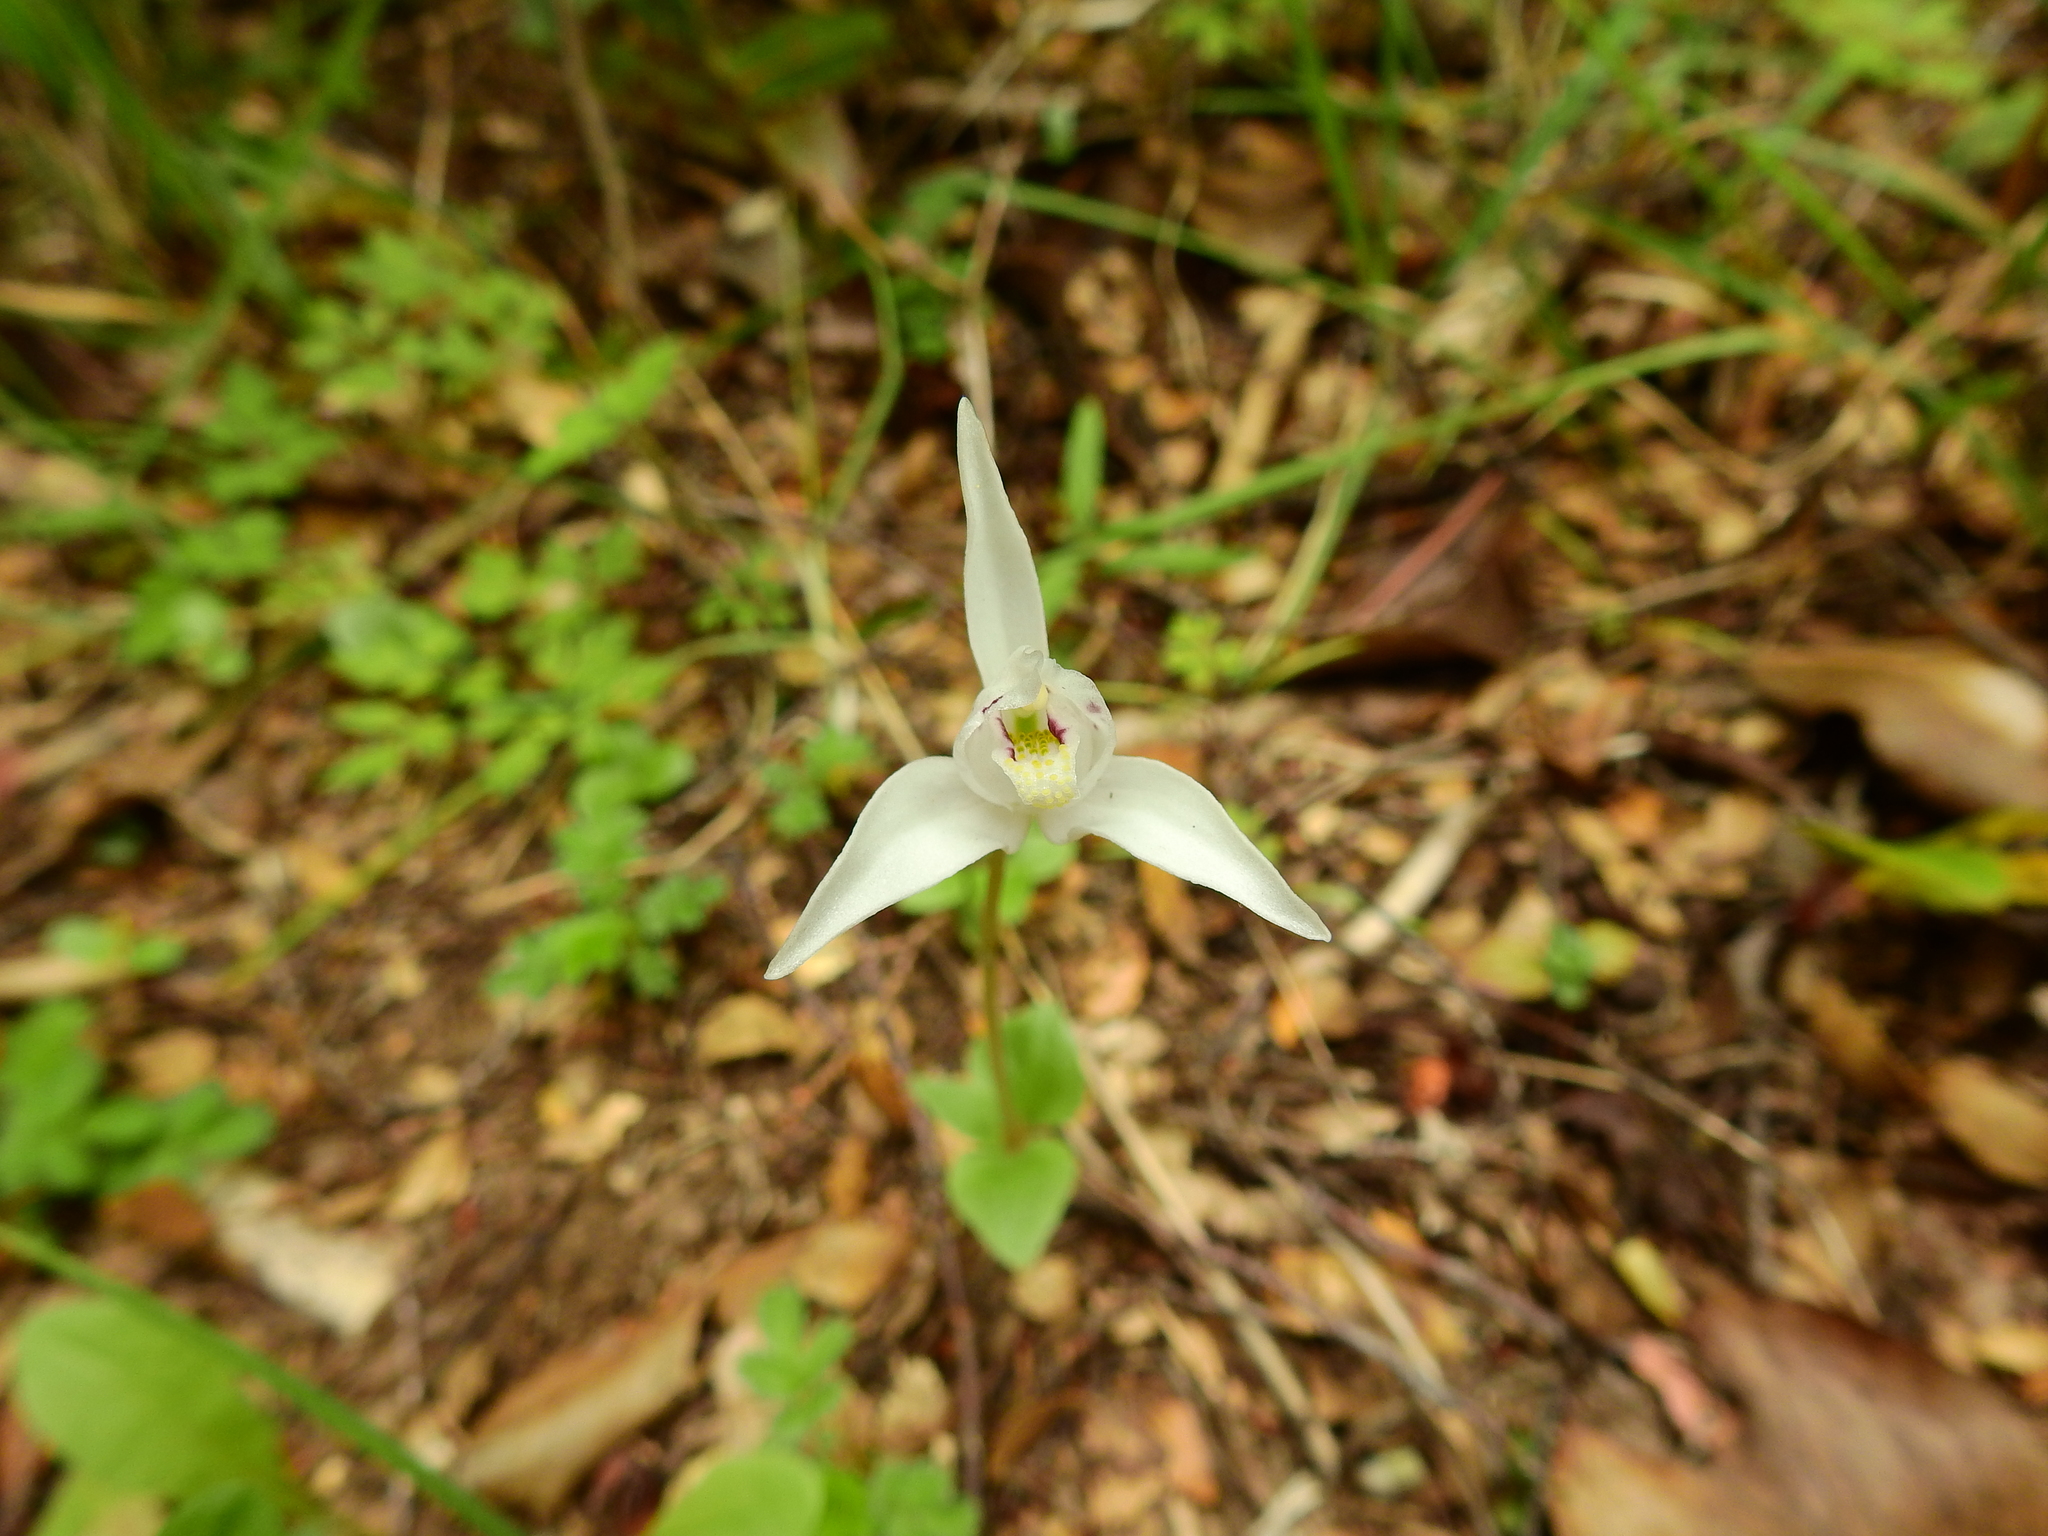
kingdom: Plantae
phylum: Tracheophyta
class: Liliopsida
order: Asparagales
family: Orchidaceae
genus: Codonorchis
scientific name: Codonorchis lessonii
